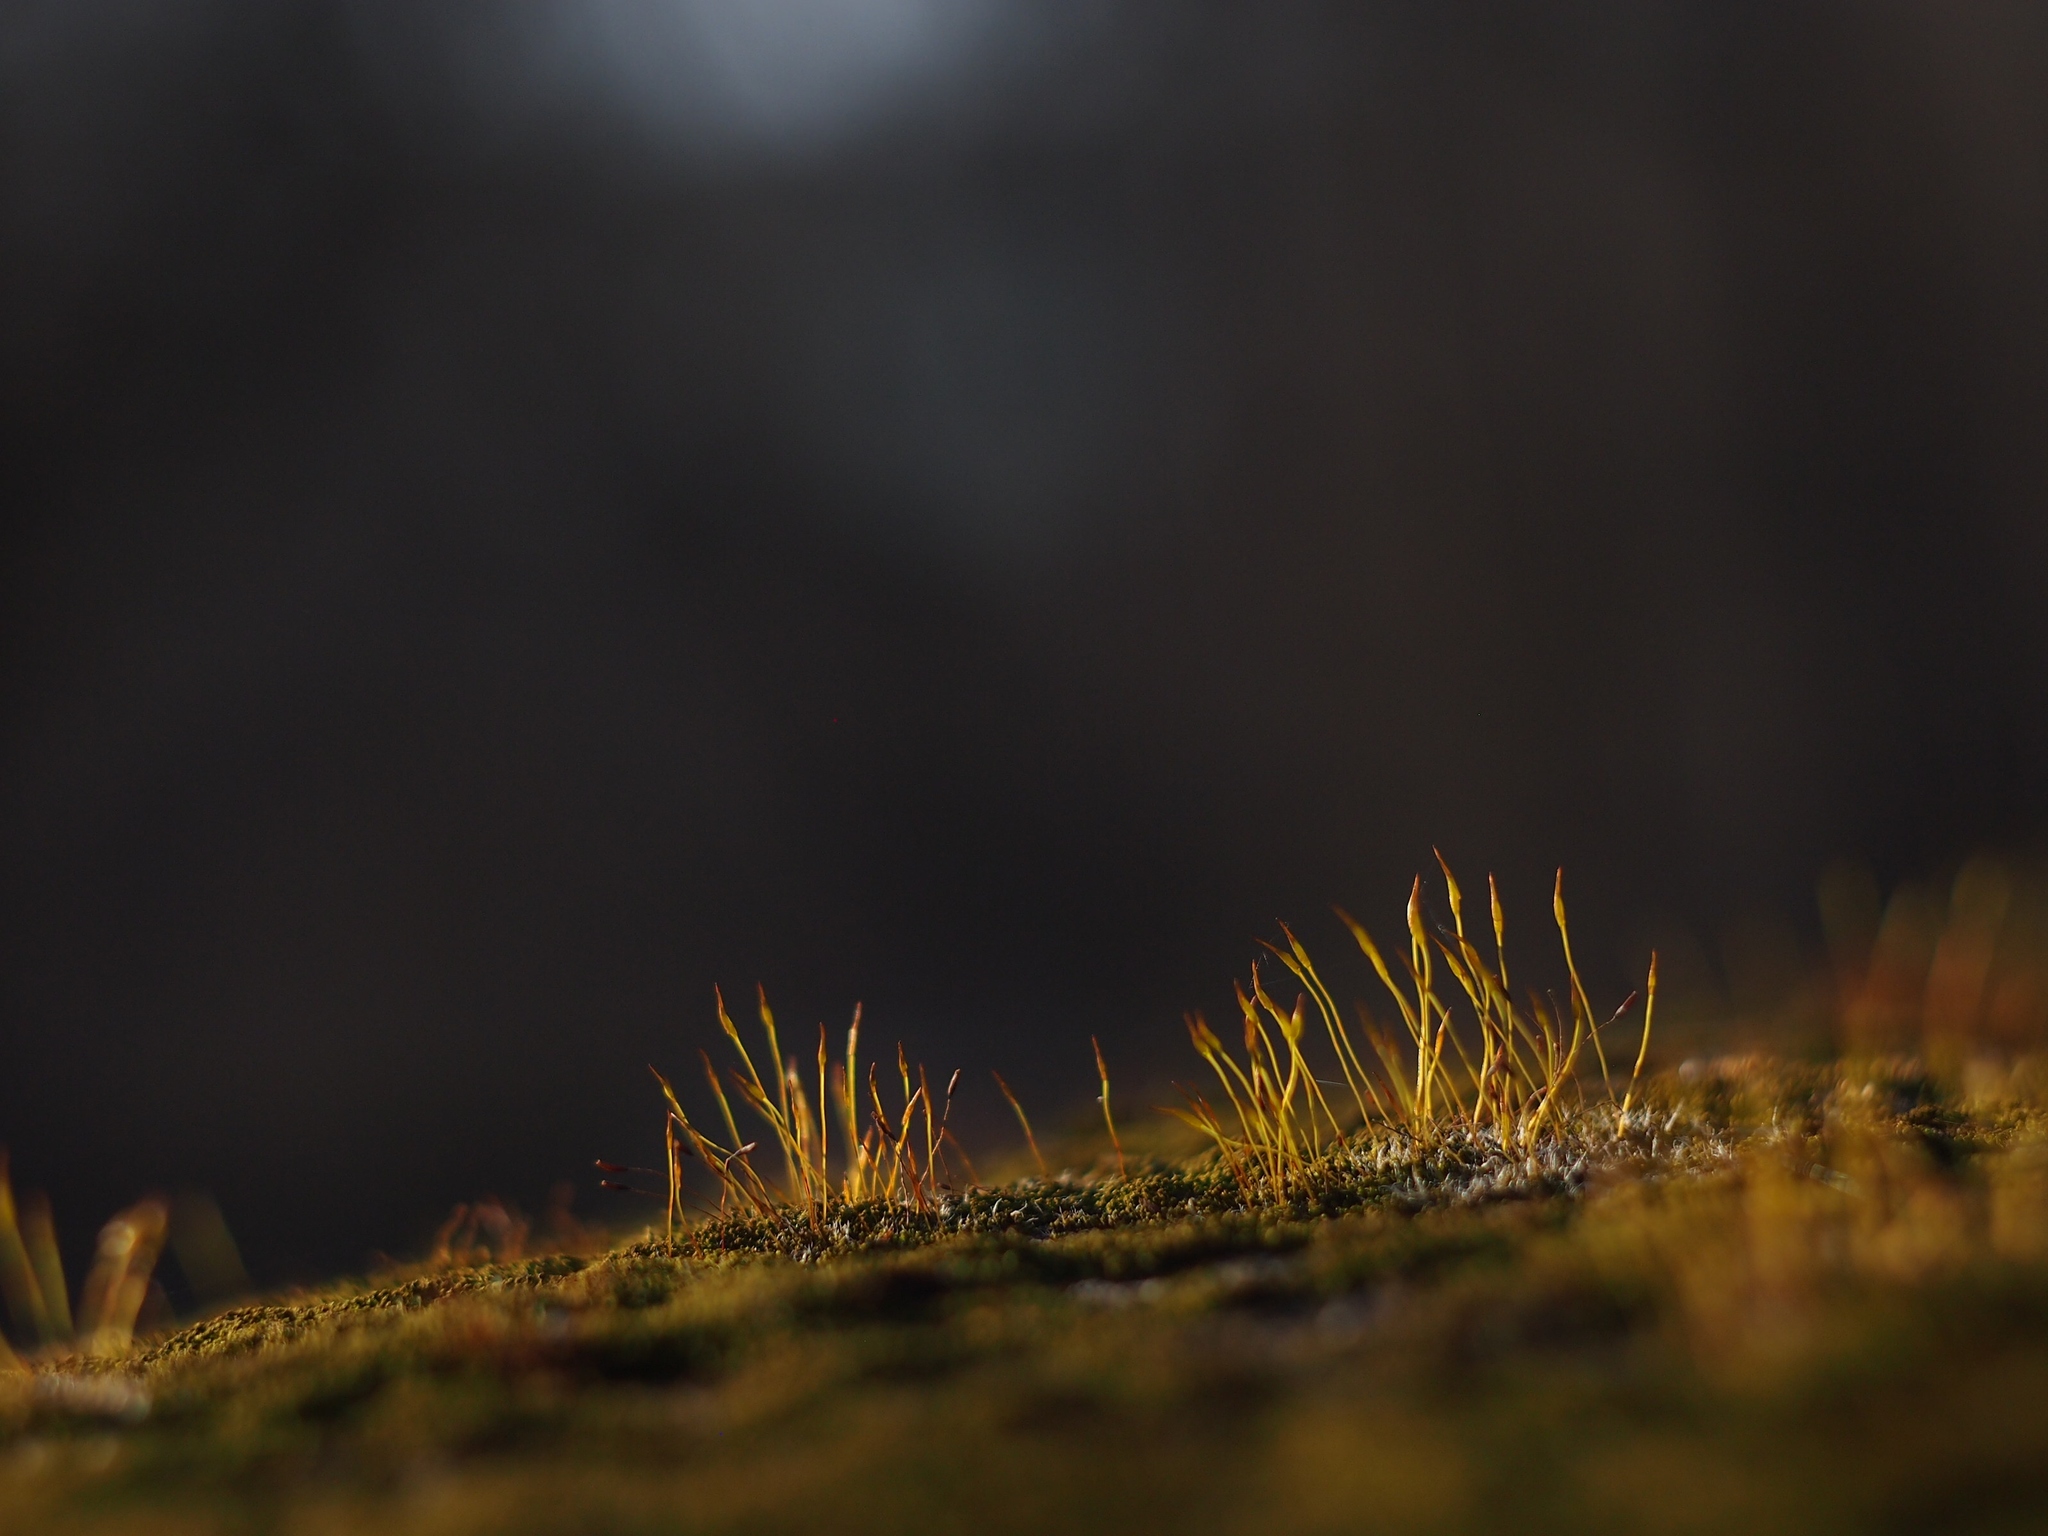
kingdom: Plantae
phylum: Bryophyta
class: Bryopsida
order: Pottiales
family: Pottiaceae
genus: Tortula
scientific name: Tortula muralis
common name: Wall screw-moss
